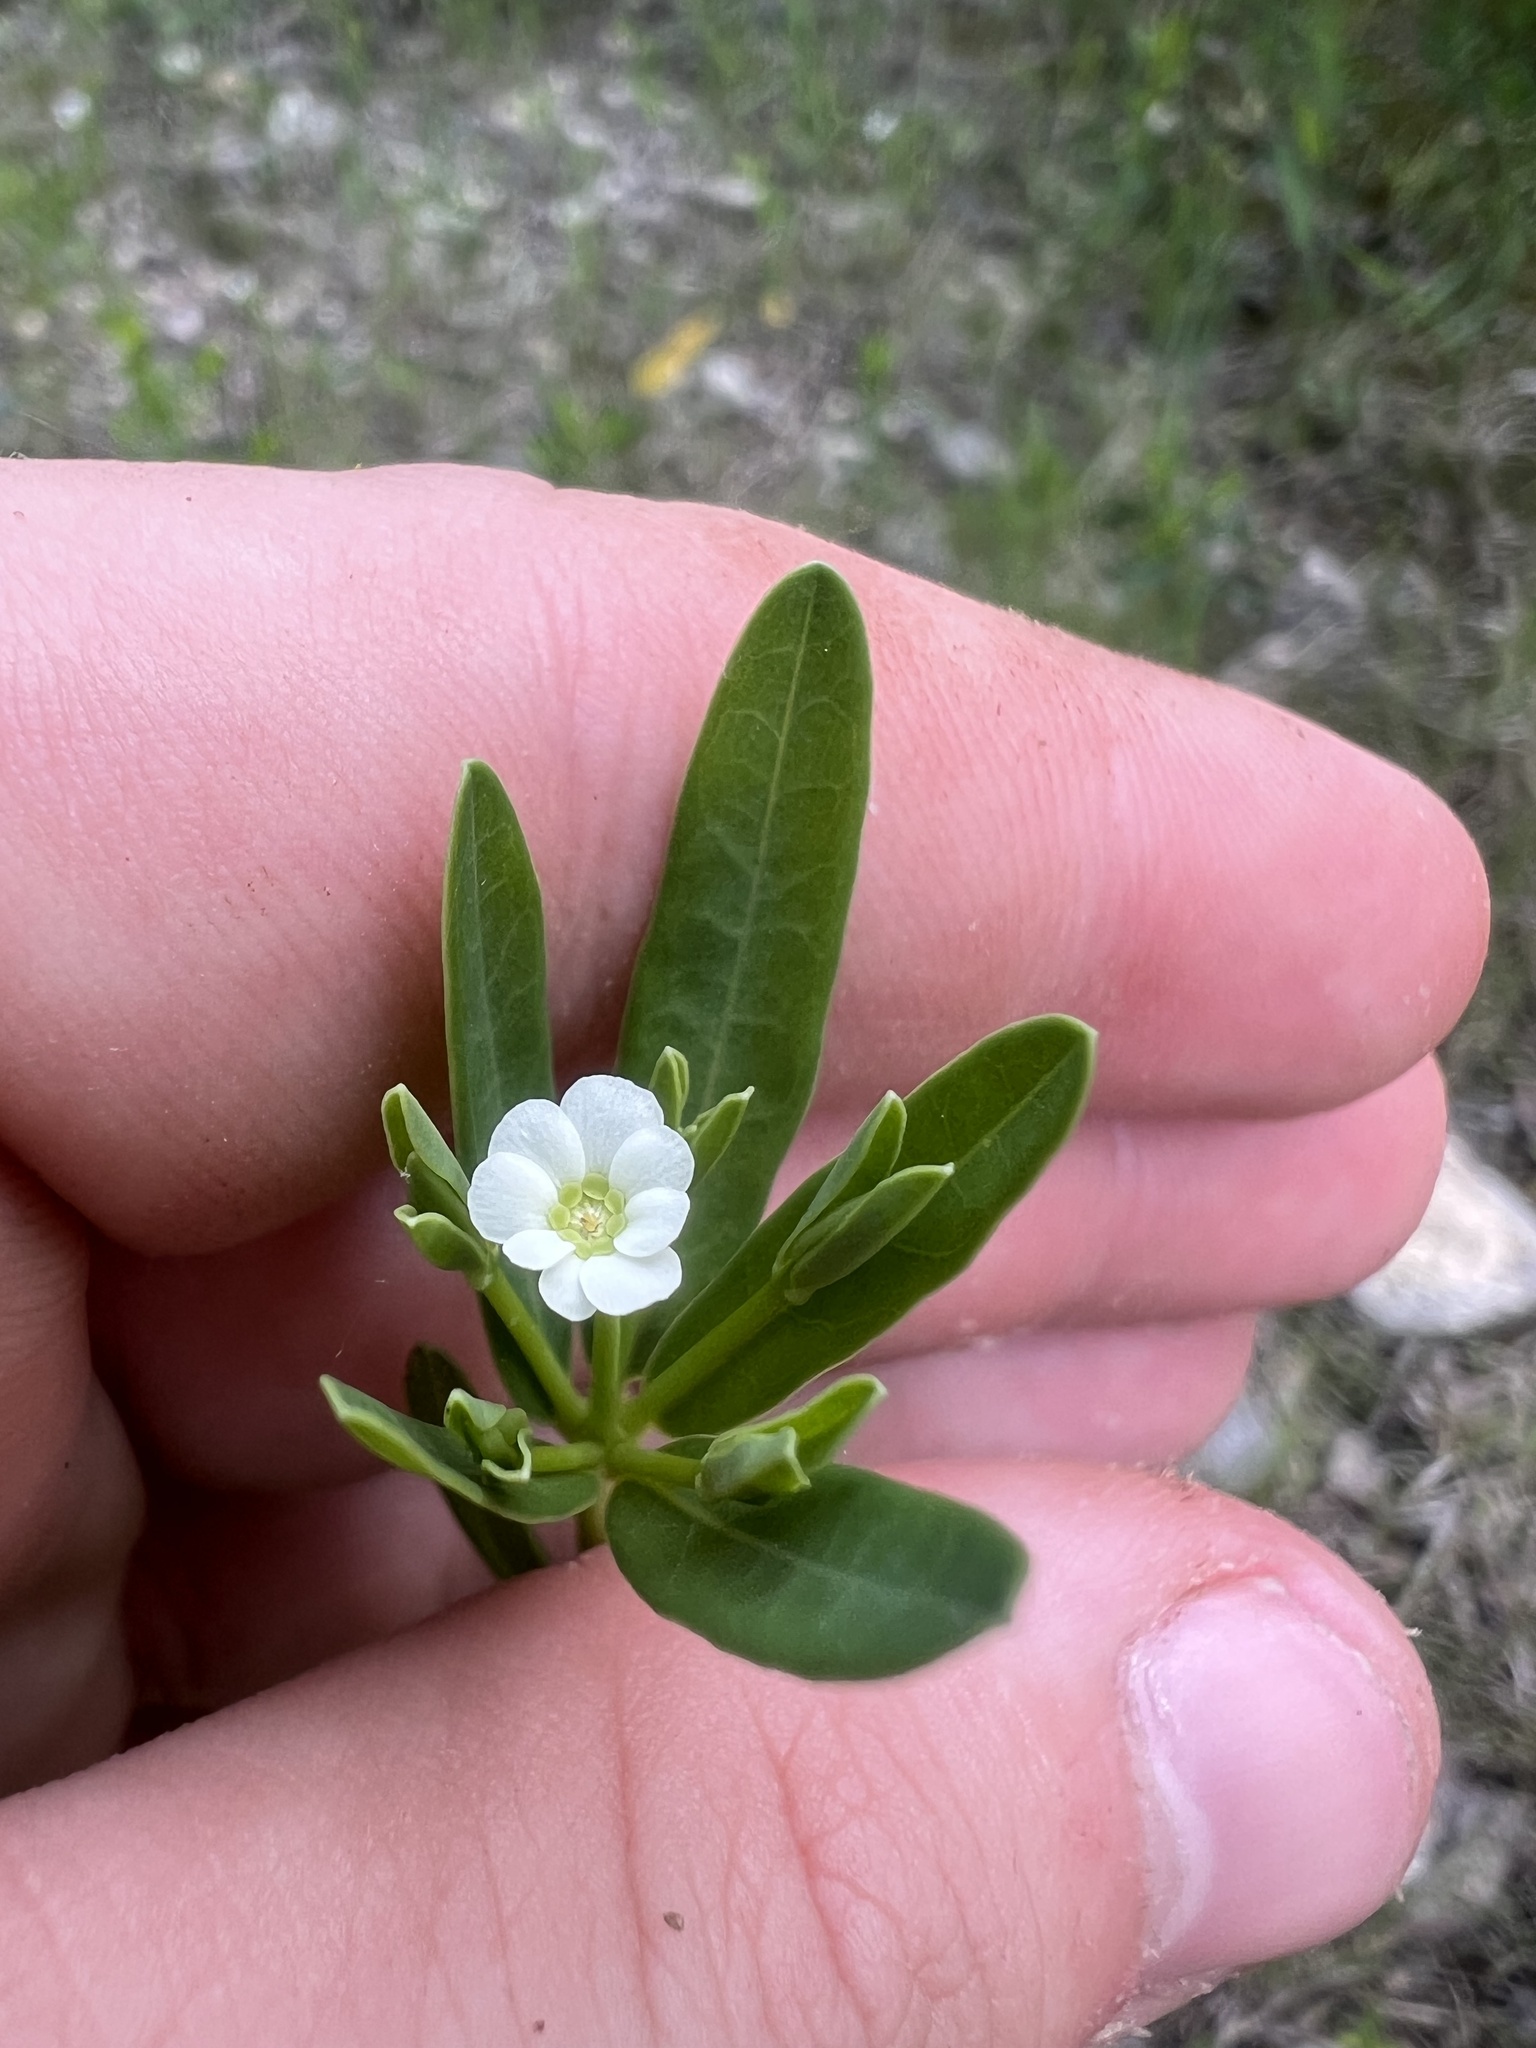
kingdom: Plantae
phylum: Tracheophyta
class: Magnoliopsida
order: Malpighiales
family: Euphorbiaceae
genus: Euphorbia
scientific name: Euphorbia corollata
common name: Flowering spurge
